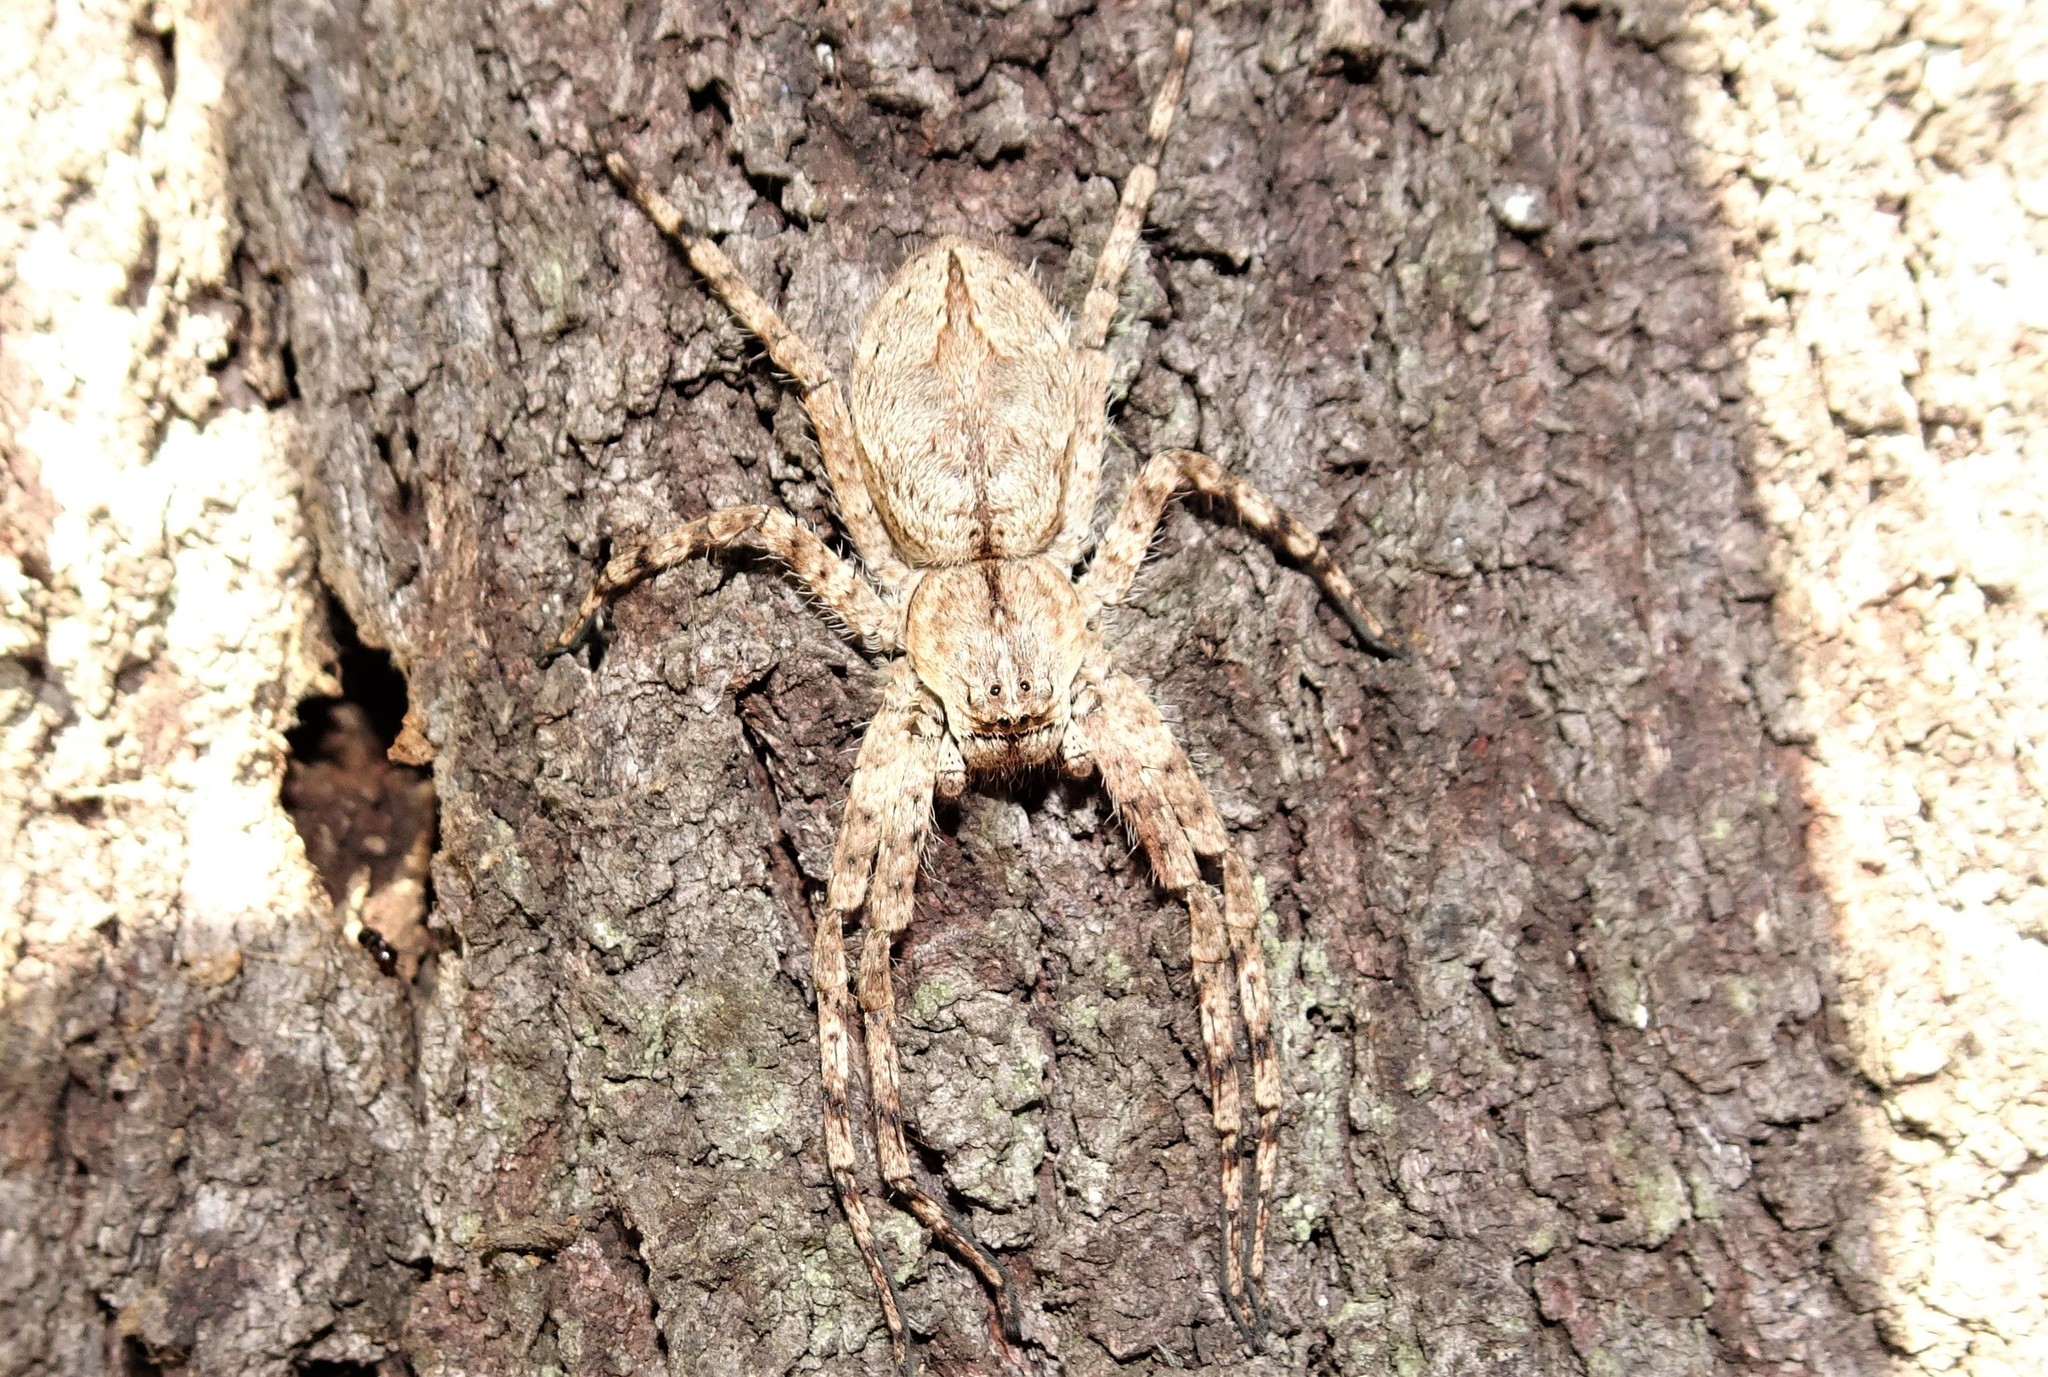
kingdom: Animalia
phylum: Arthropoda
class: Arachnida
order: Araneae
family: Sparassidae
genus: Pediana
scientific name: Pediana regina
